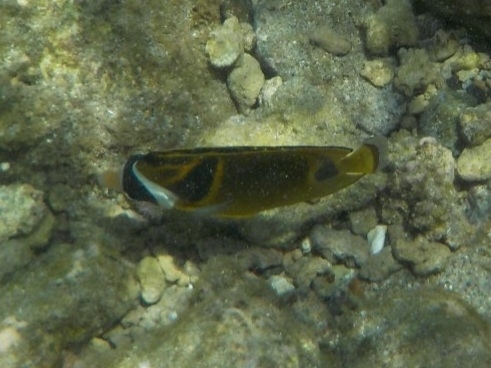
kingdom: Animalia
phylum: Chordata
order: Perciformes
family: Chaetodontidae
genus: Chaetodon
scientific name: Chaetodon lunula
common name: Raccoon butterflyfish
